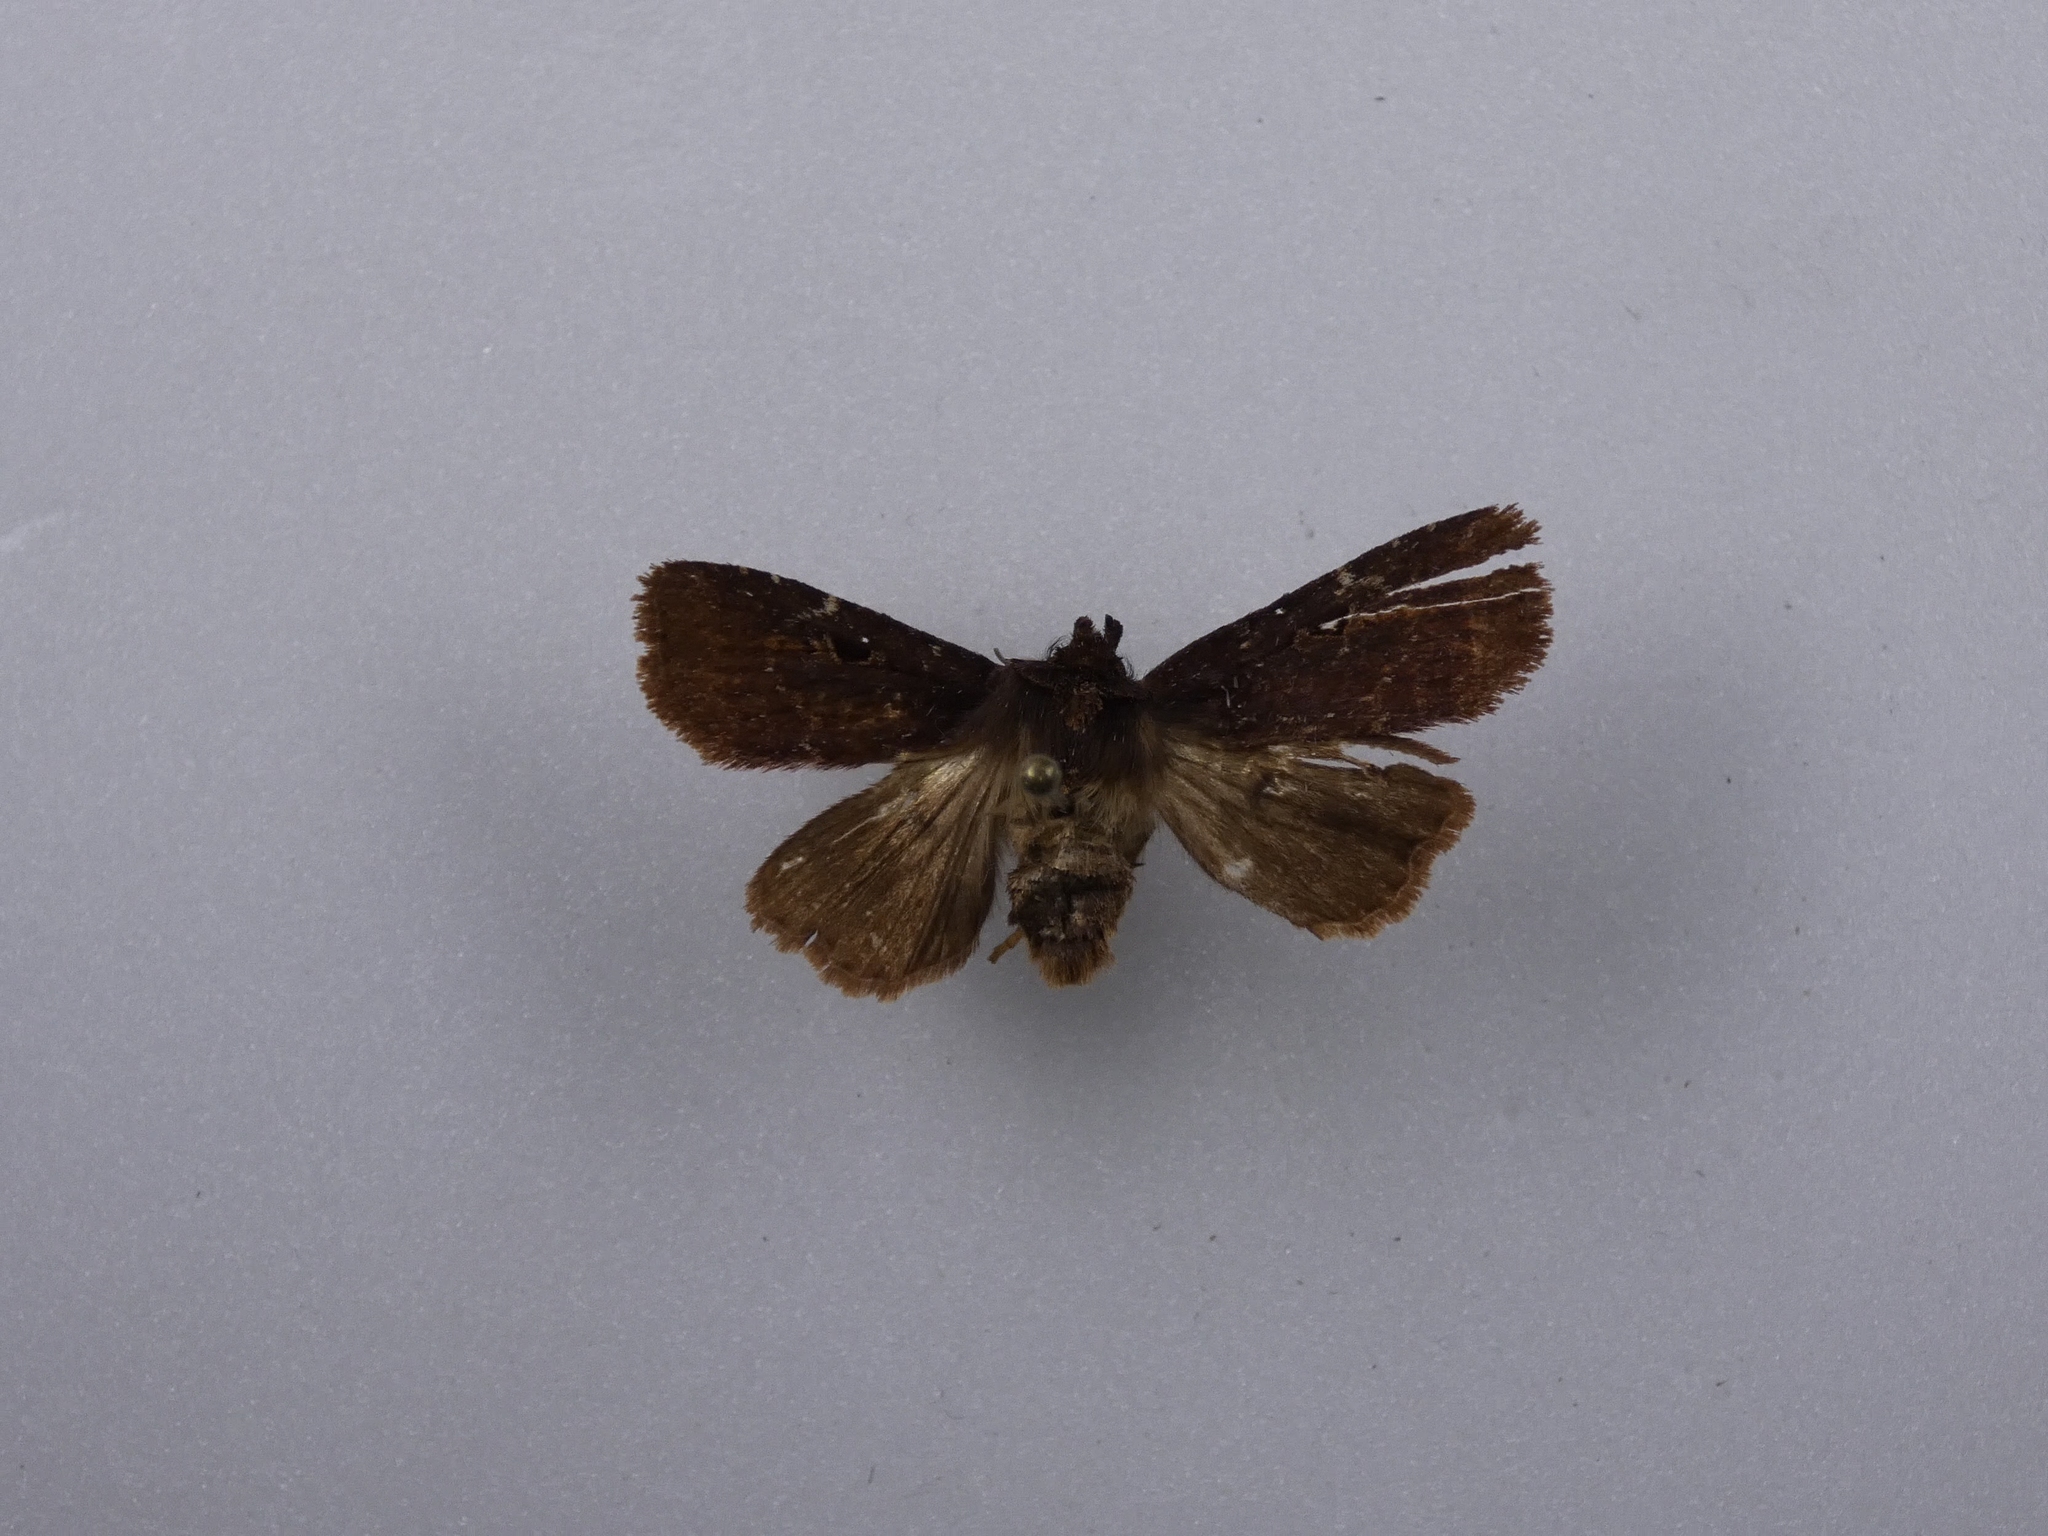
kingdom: Animalia
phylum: Arthropoda
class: Insecta
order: Lepidoptera
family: Noctuidae
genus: Austramathes
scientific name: Austramathes purpurea
